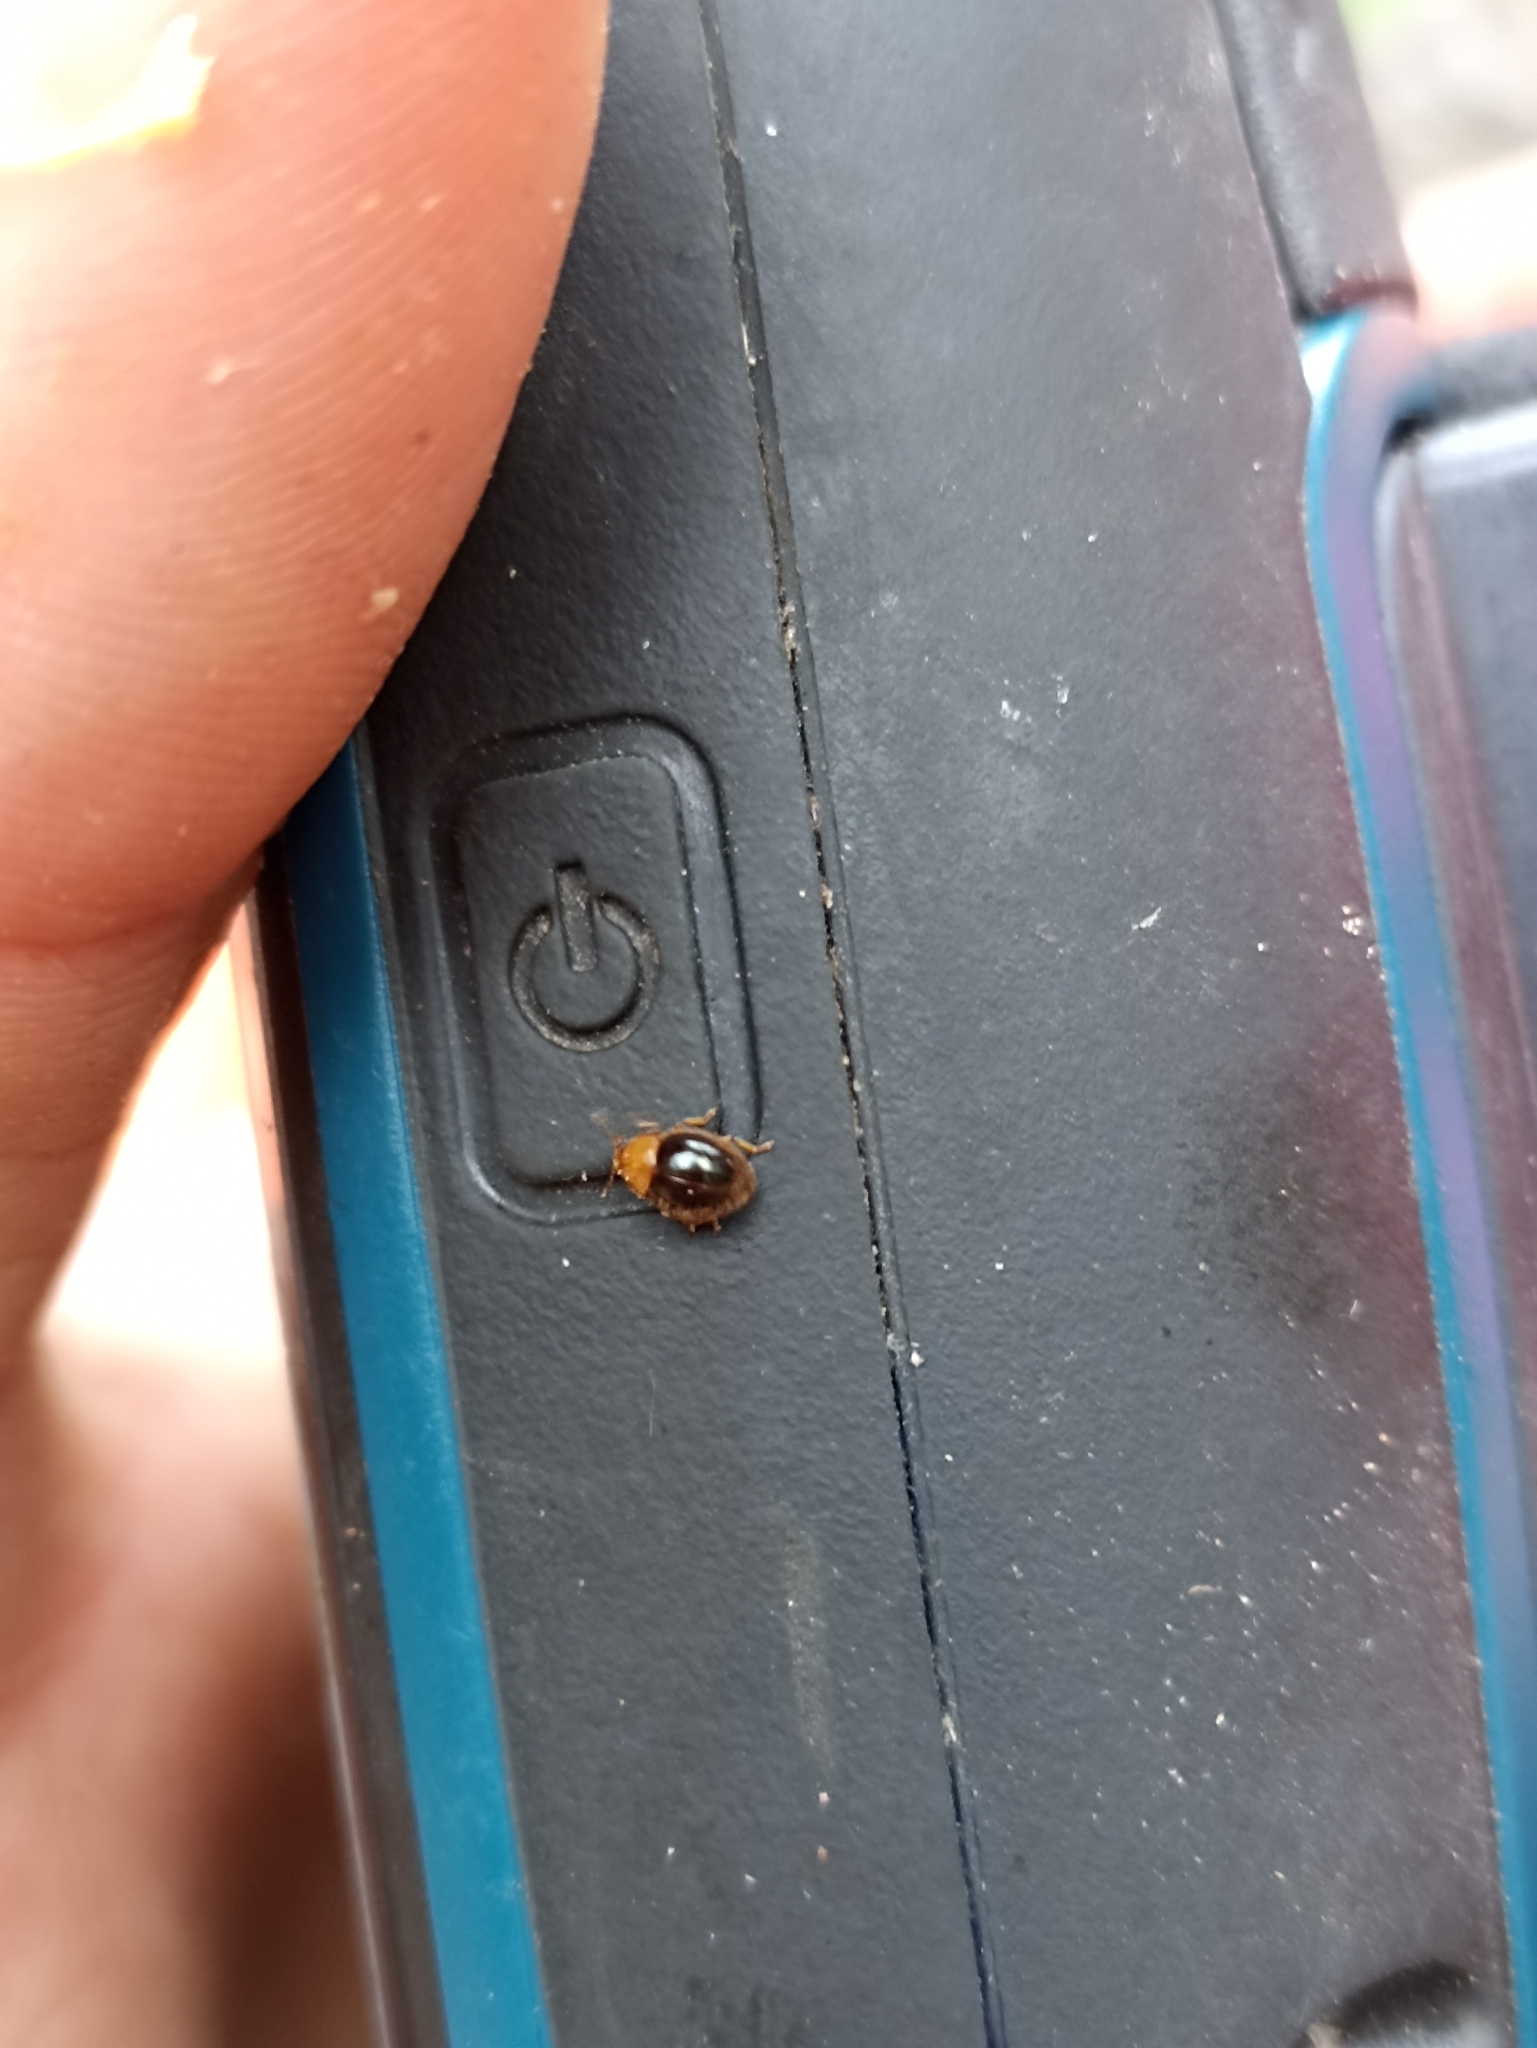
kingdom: Animalia
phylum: Arthropoda
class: Insecta
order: Coleoptera
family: Coccinellidae
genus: Adoxellus
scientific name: Adoxellus
